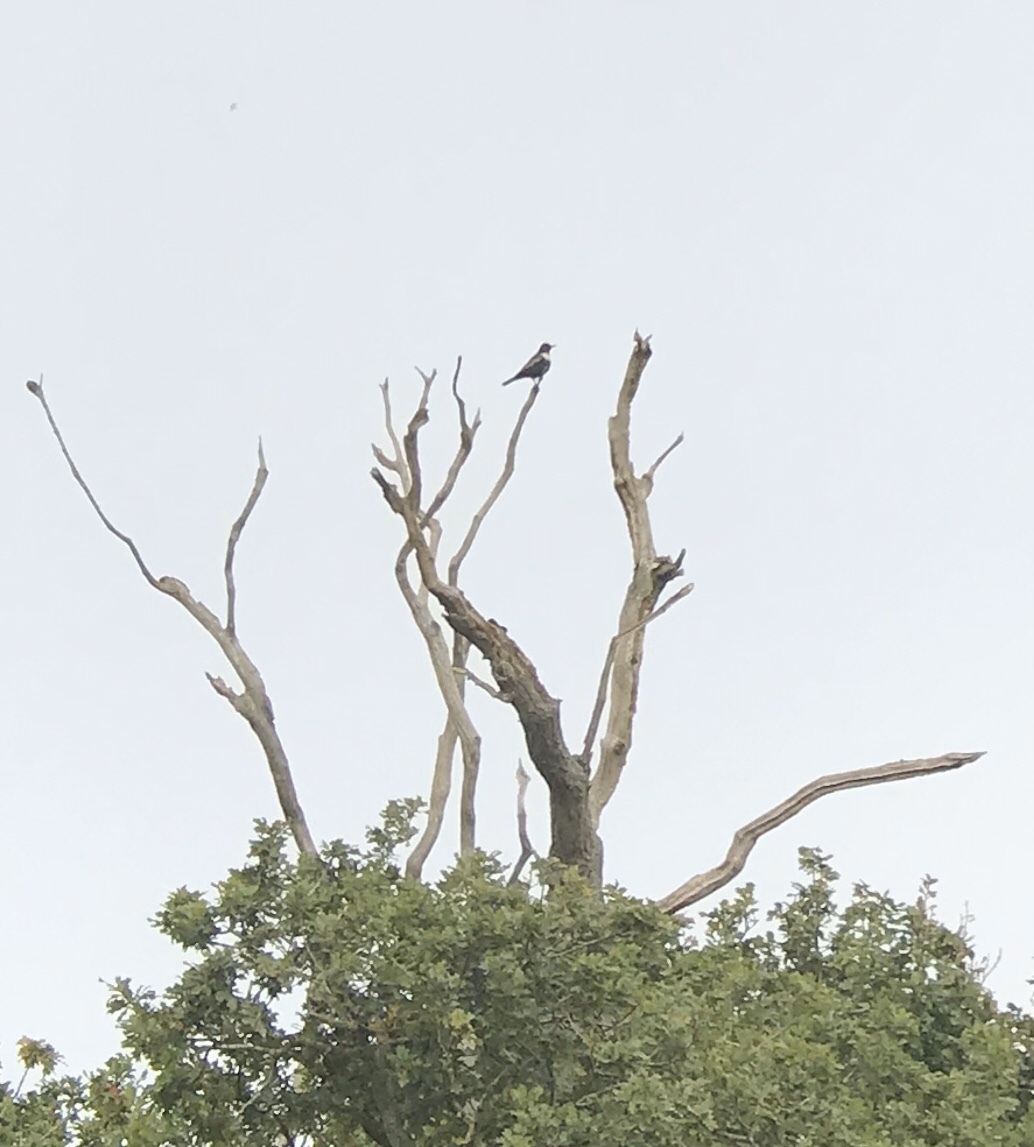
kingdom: Animalia
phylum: Chordata
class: Aves
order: Passeriformes
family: Turdidae
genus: Turdus
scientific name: Turdus torquatus
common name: Ring ouzel
